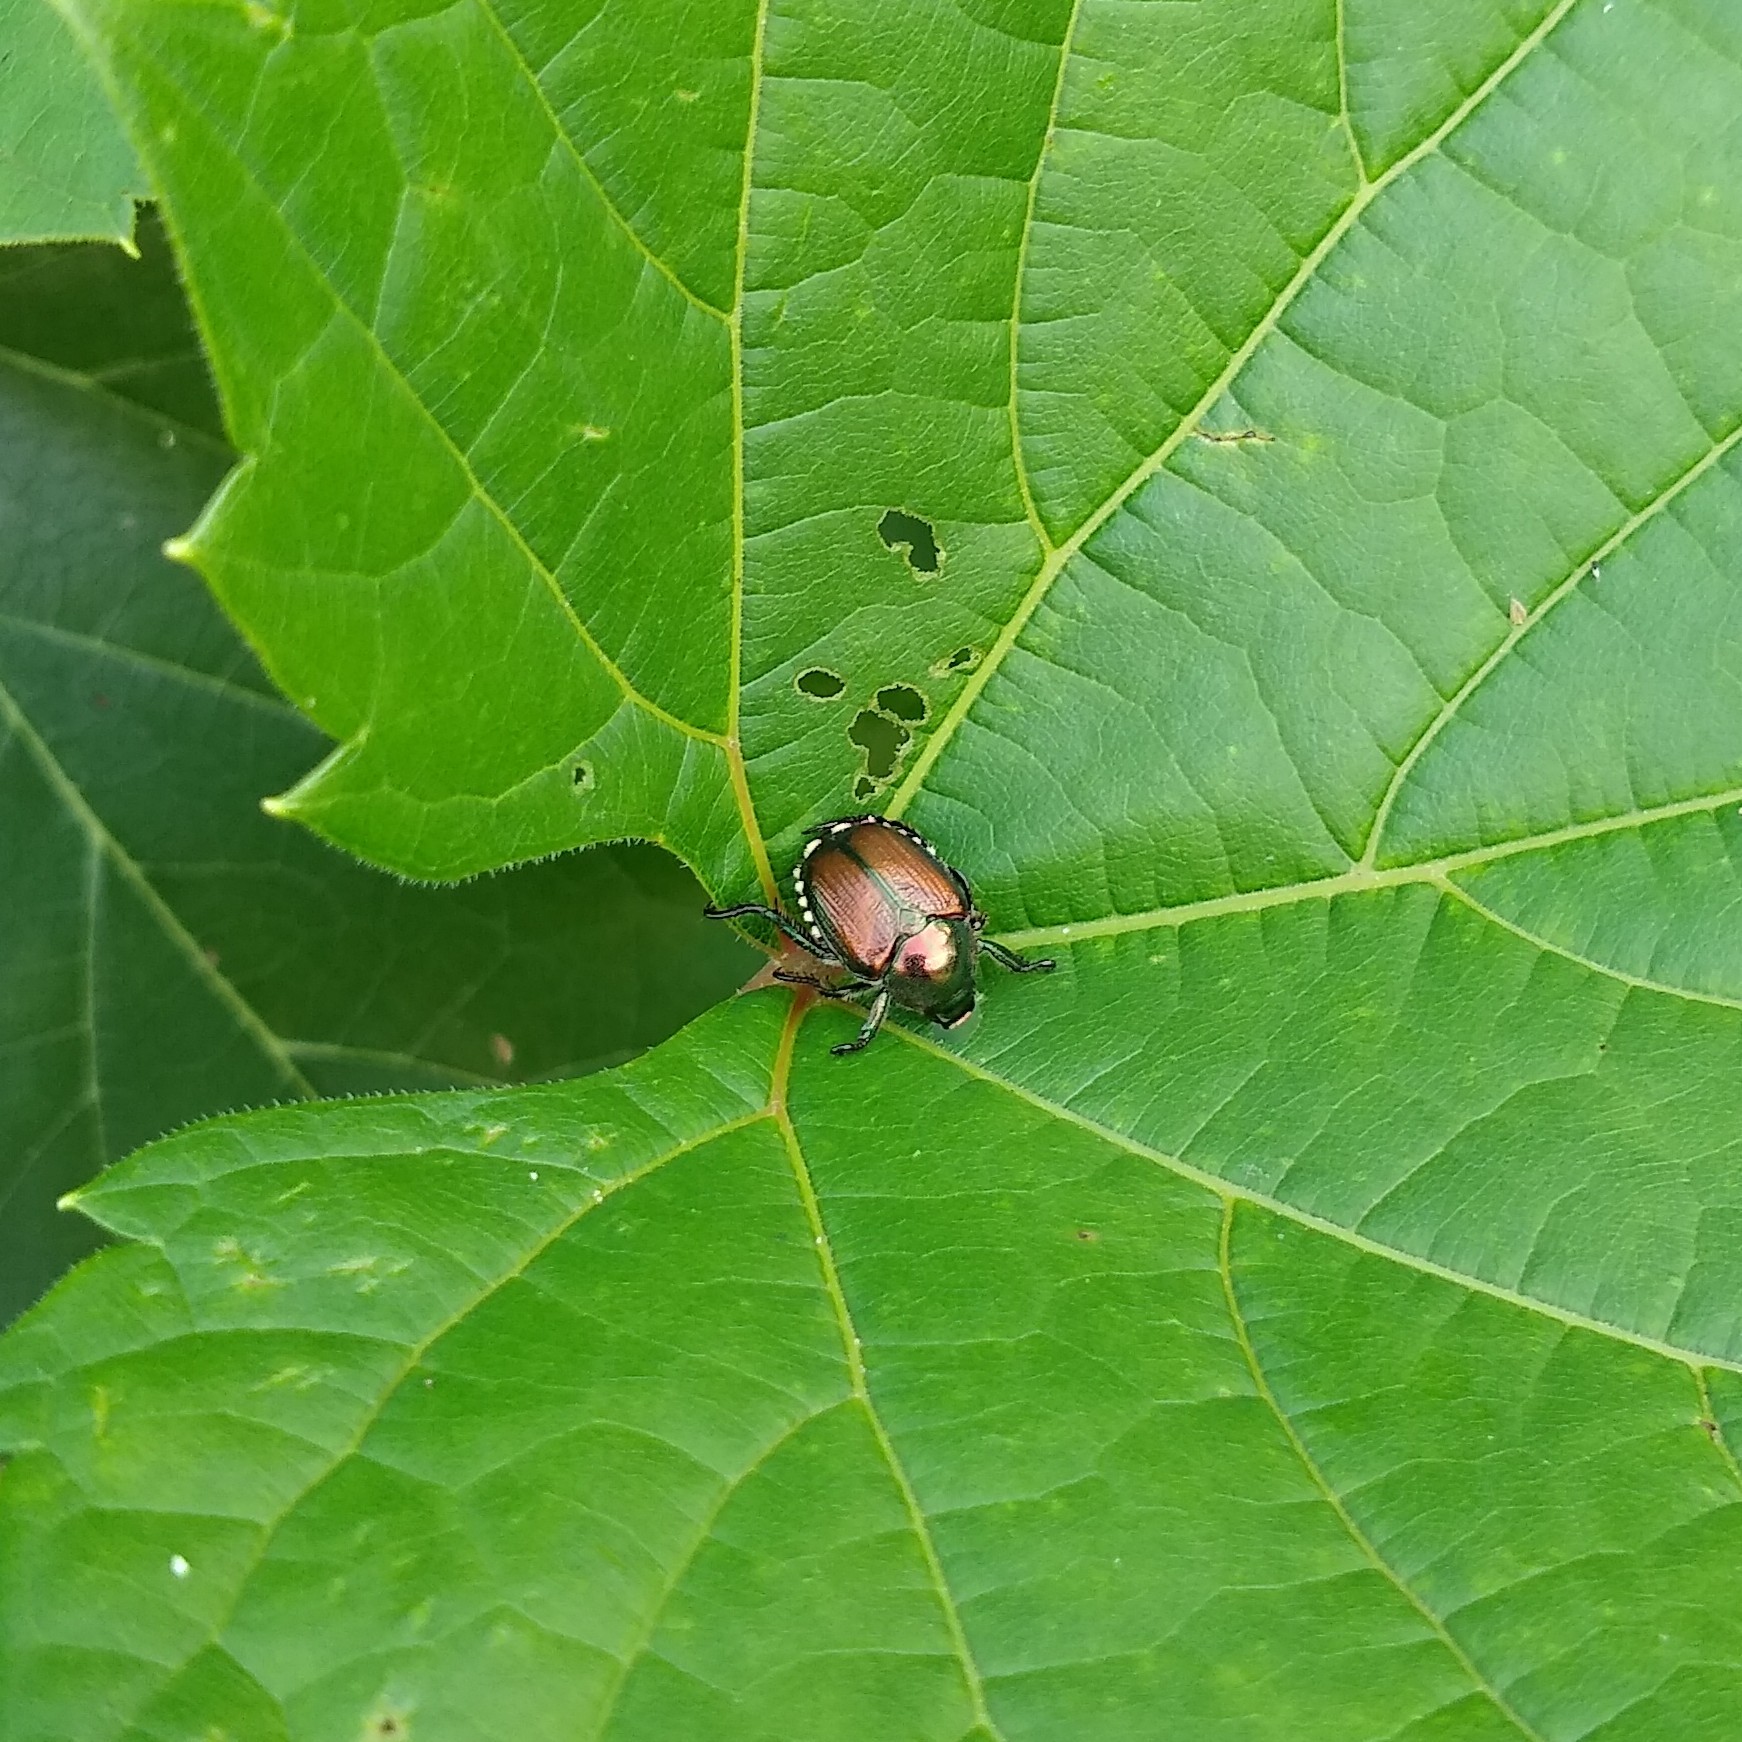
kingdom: Animalia
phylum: Arthropoda
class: Insecta
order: Coleoptera
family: Scarabaeidae
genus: Popillia
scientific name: Popillia japonica
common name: Japanese beetle
